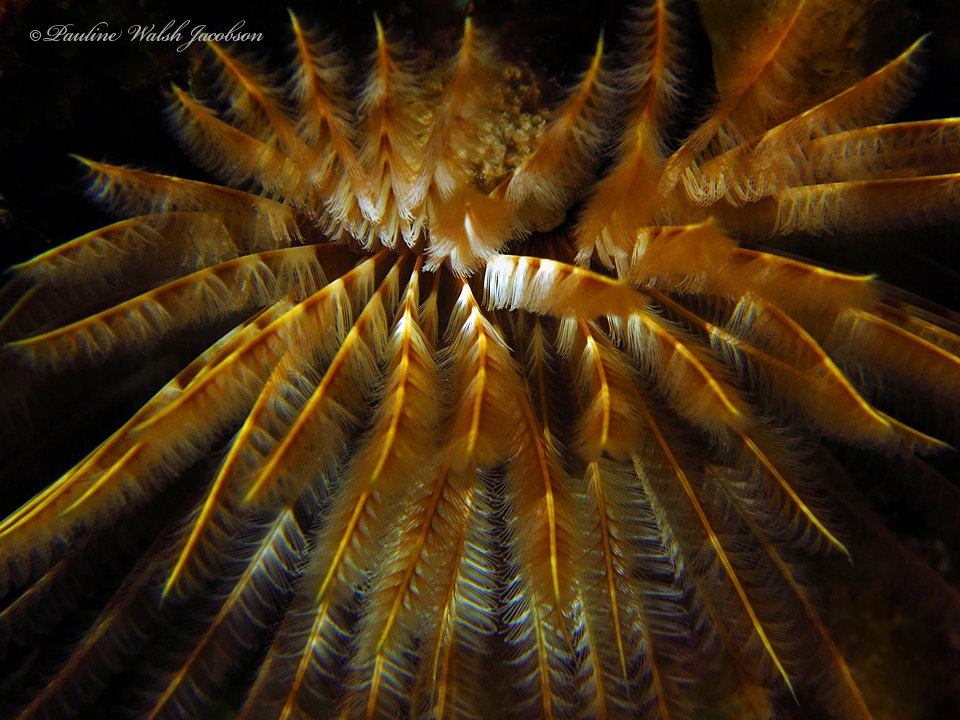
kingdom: Animalia
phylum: Annelida
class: Polychaeta
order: Sabellida
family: Sabellidae
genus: Sabellastarte
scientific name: Sabellastarte magnifica
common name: Giant feather-duster worm
